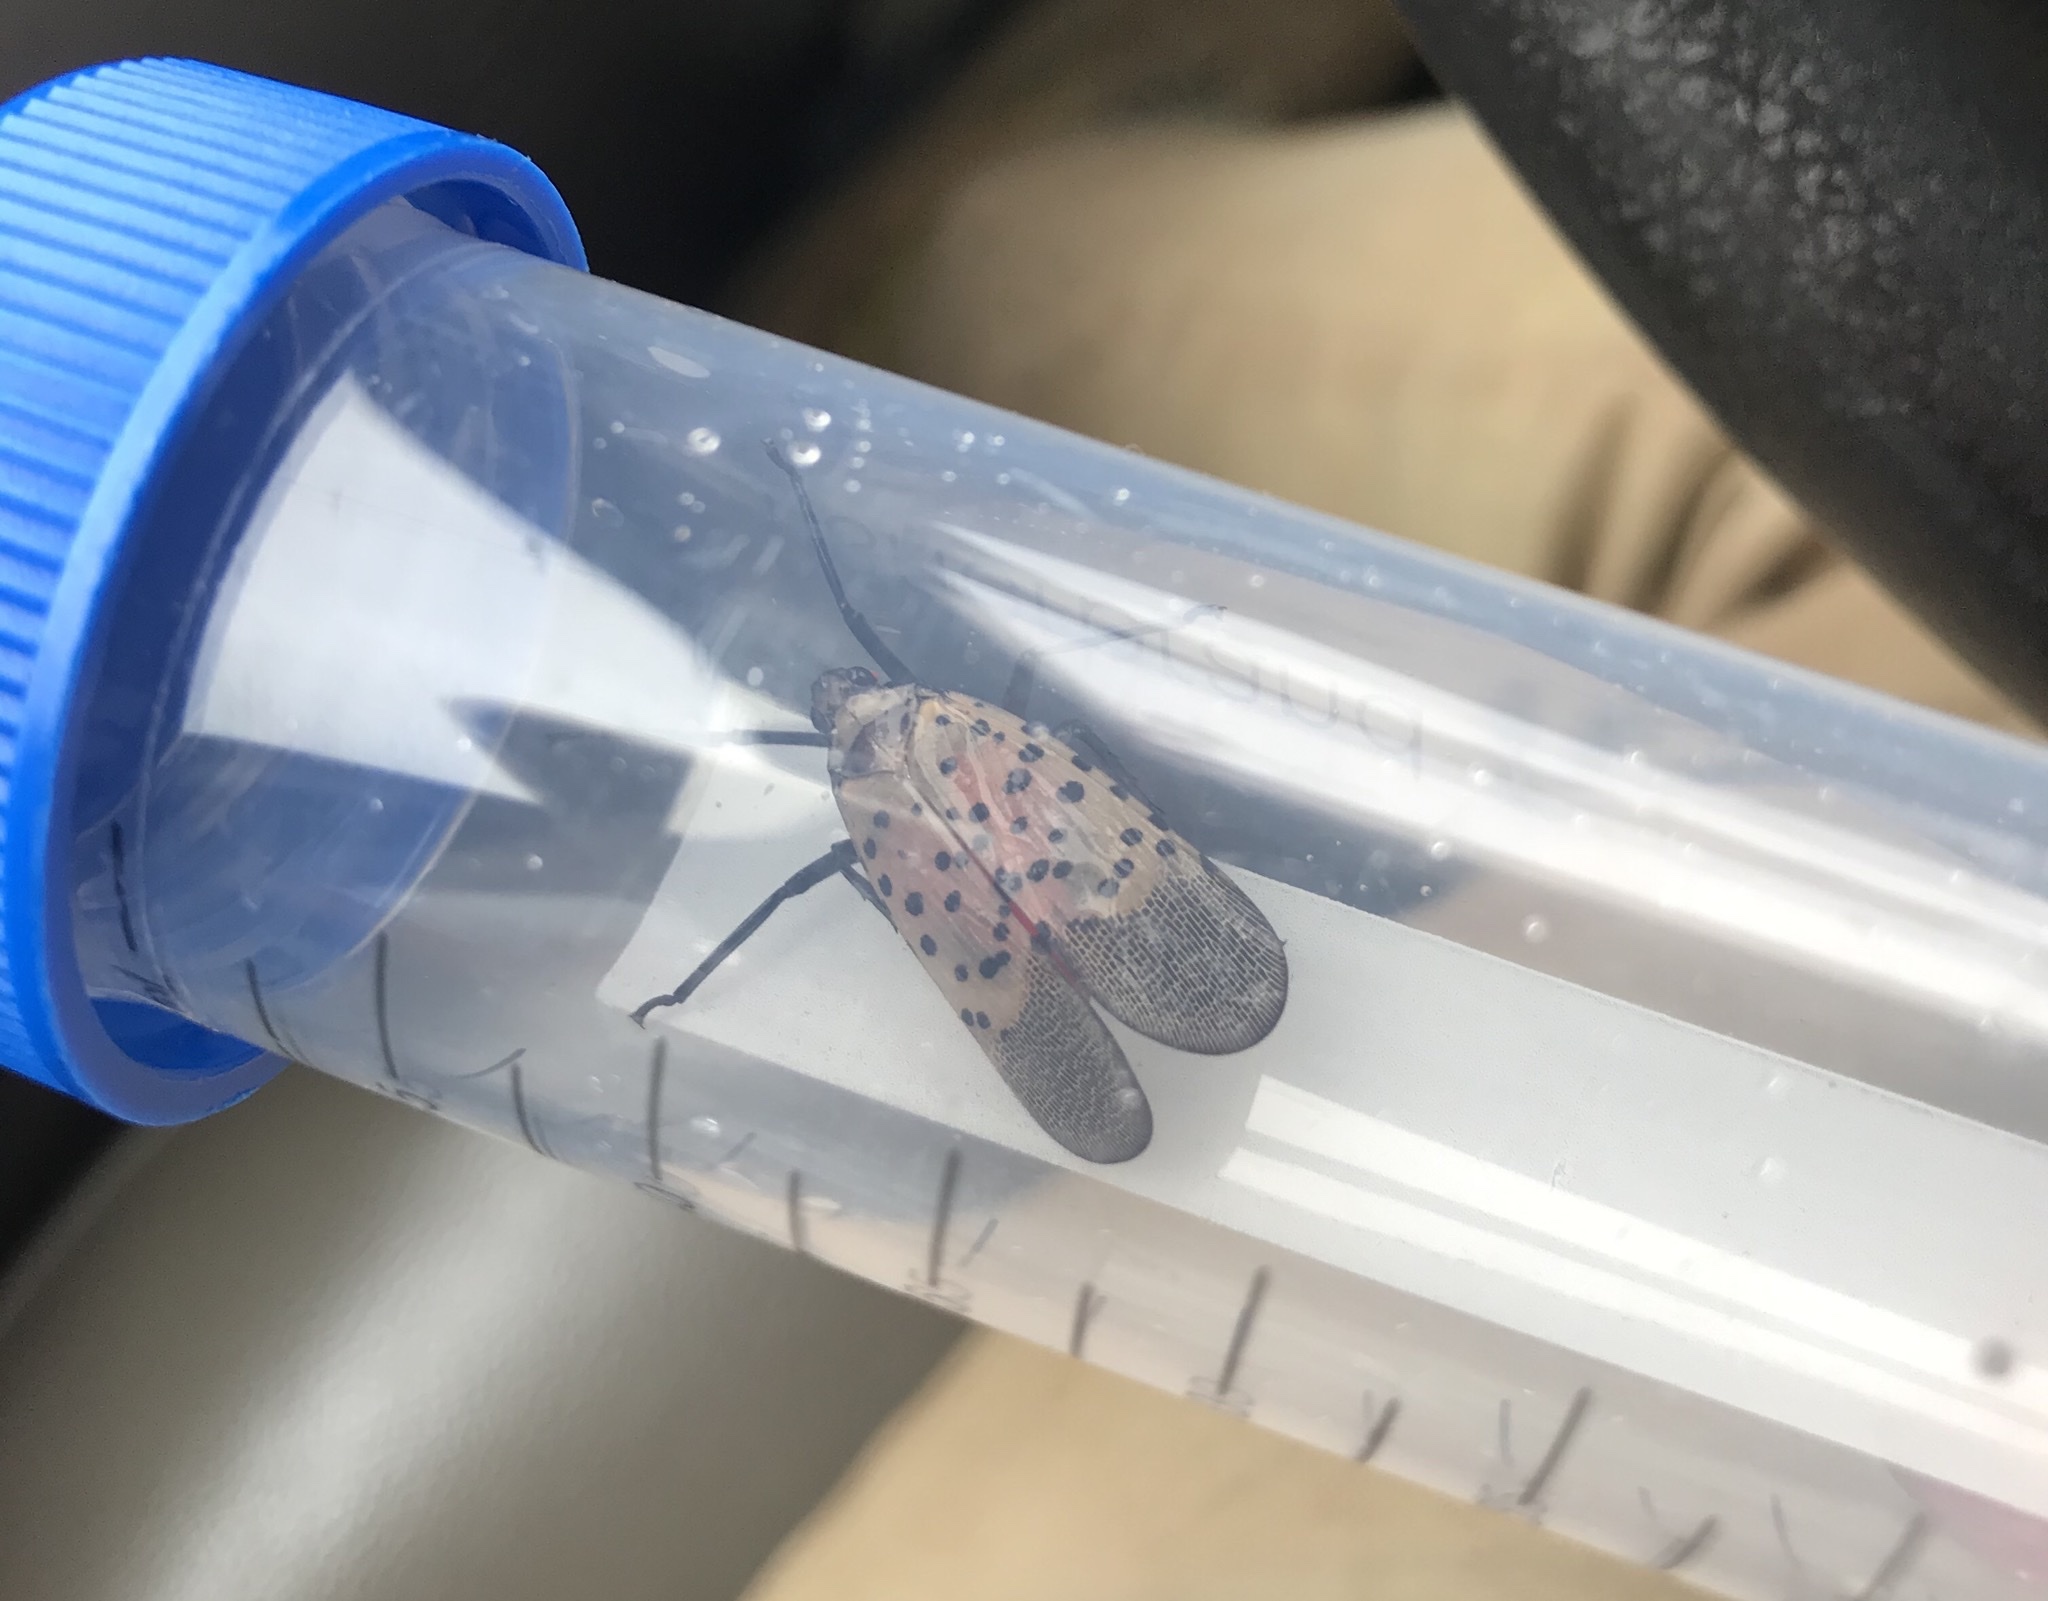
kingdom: Animalia
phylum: Arthropoda
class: Insecta
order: Hemiptera
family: Fulgoridae
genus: Lycorma
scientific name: Lycorma delicatula
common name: Spotted lanternfly
